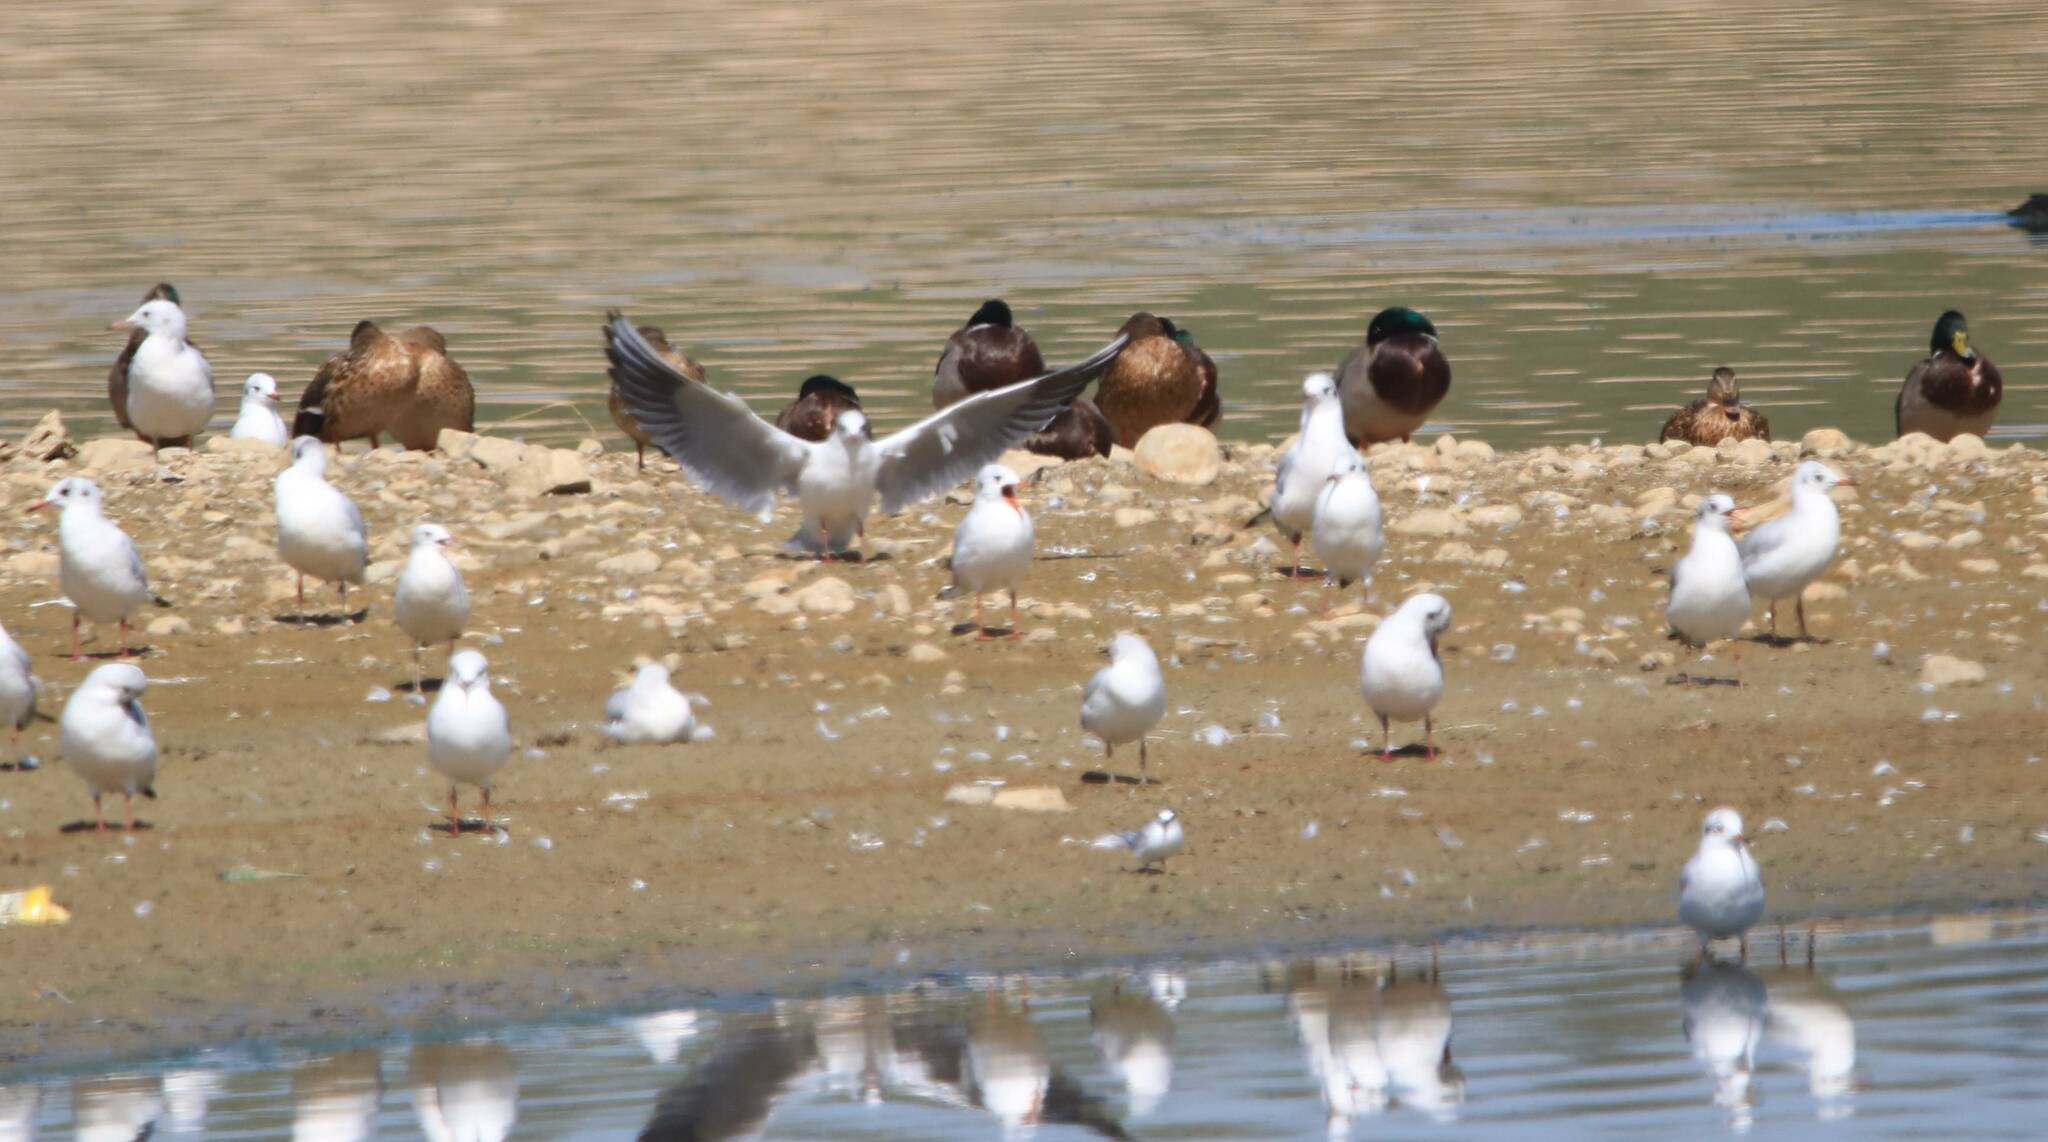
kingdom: Animalia
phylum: Chordata
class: Aves
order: Charadriiformes
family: Laridae
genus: Chroicocephalus
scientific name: Chroicocephalus ridibundus
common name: Black-headed gull
